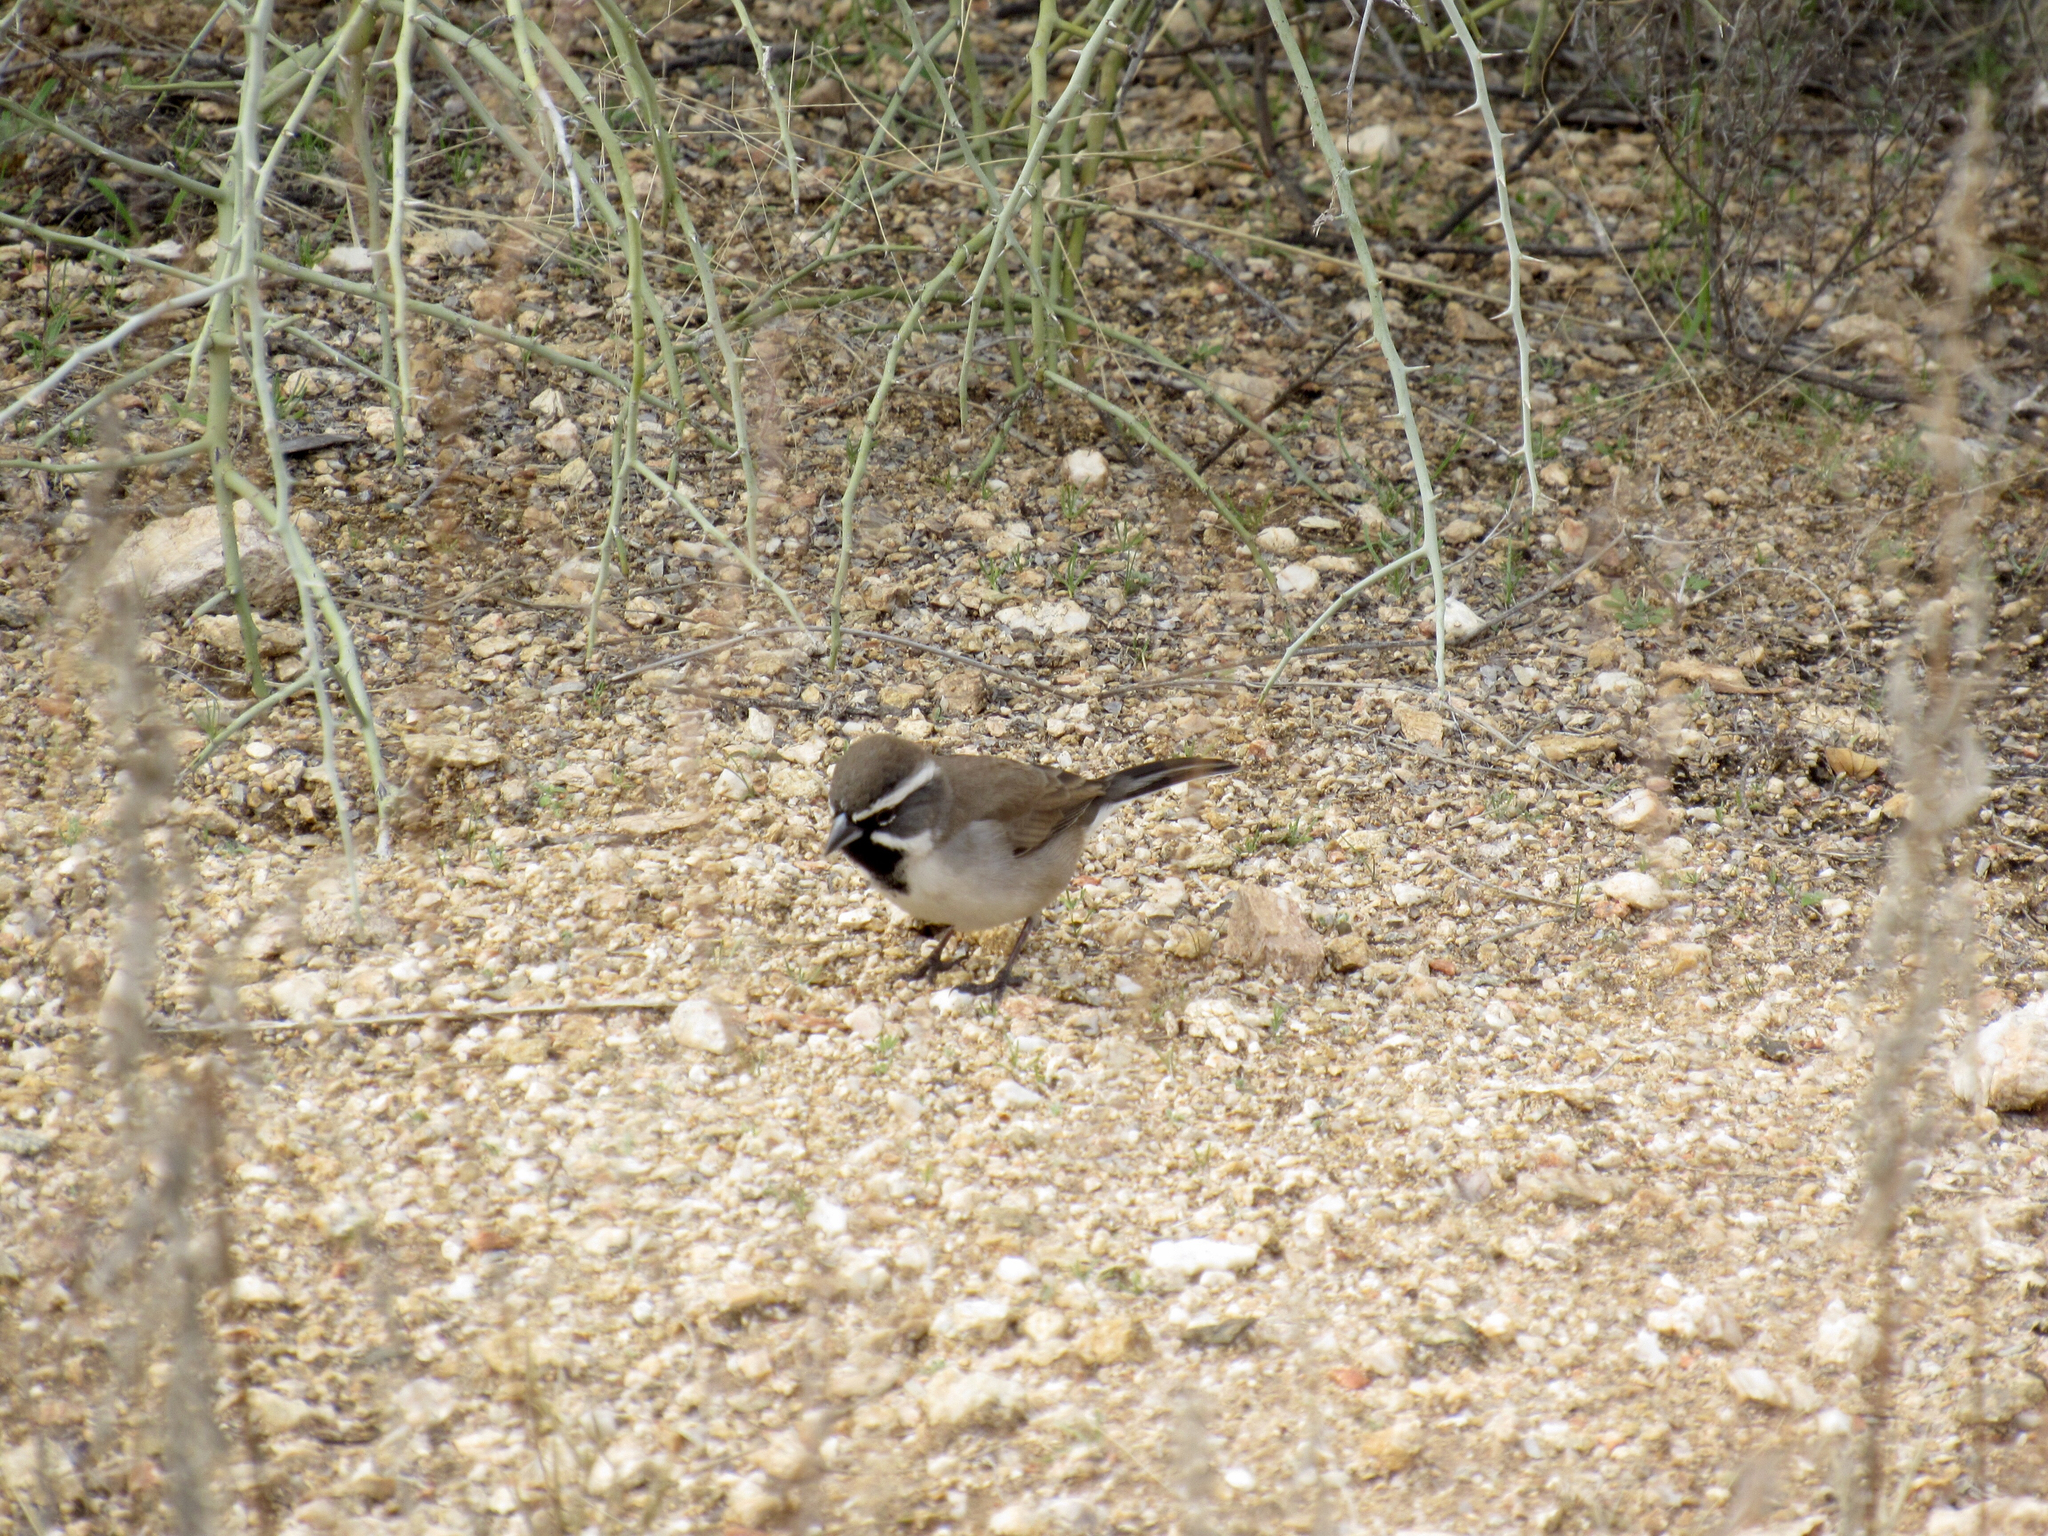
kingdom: Animalia
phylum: Chordata
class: Aves
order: Passeriformes
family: Passerellidae
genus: Amphispiza
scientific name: Amphispiza bilineata
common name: Black-throated sparrow
